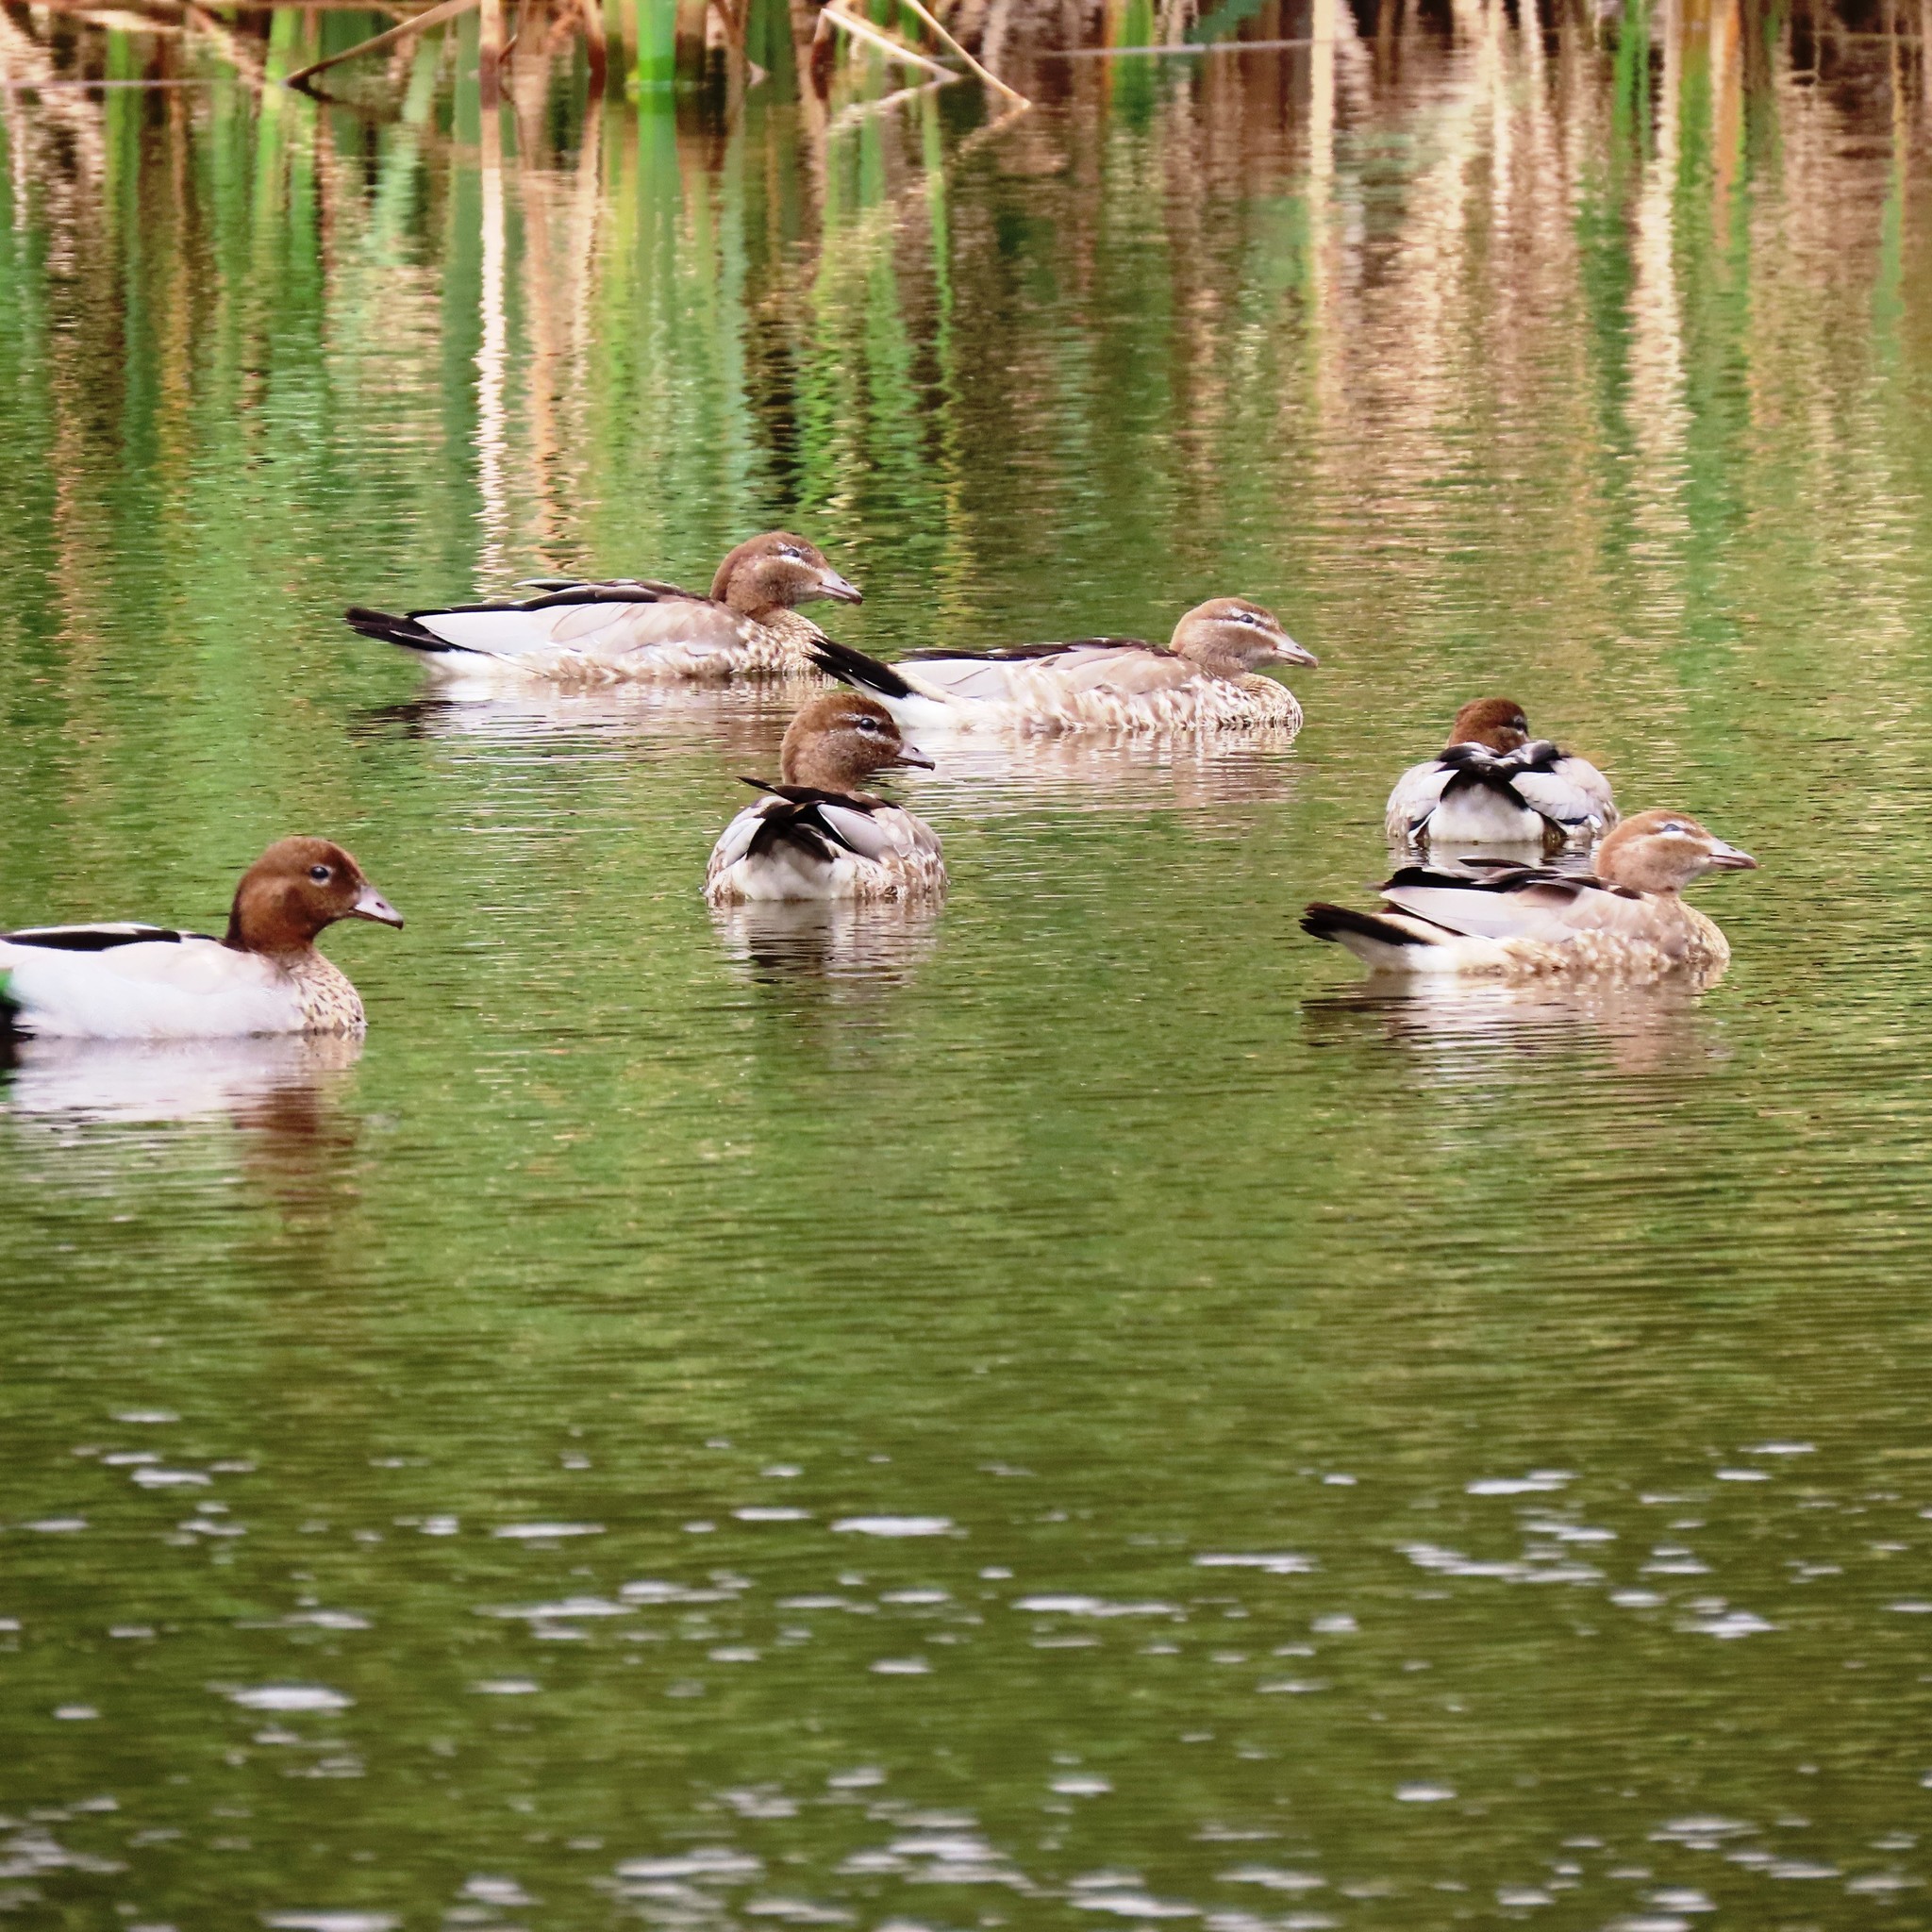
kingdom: Animalia
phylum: Chordata
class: Aves
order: Anseriformes
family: Anatidae
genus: Chenonetta
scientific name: Chenonetta jubata
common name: Maned duck
